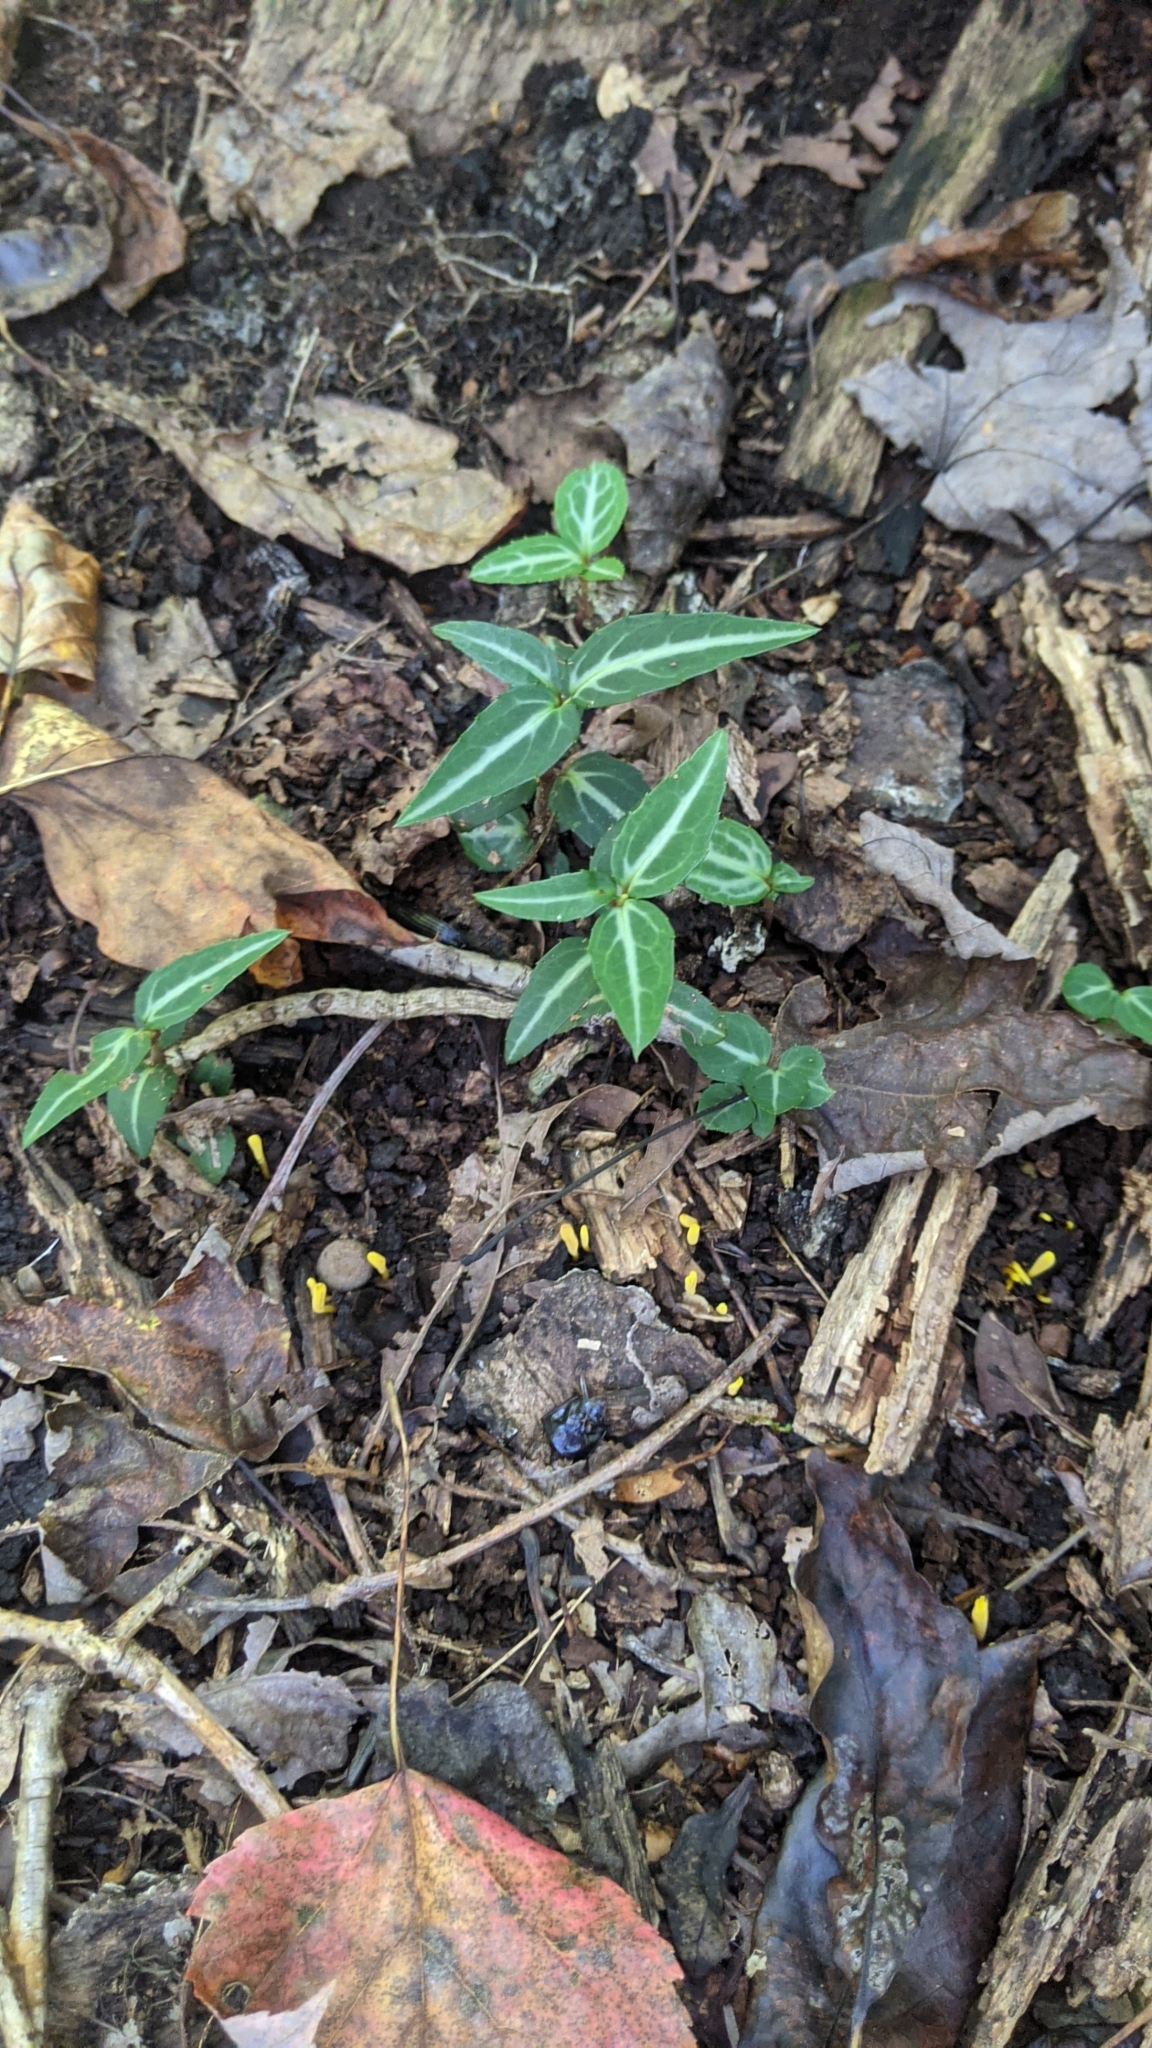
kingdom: Plantae
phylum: Tracheophyta
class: Magnoliopsida
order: Ericales
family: Ericaceae
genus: Chimaphila
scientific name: Chimaphila maculata
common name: Spotted pipsissewa
